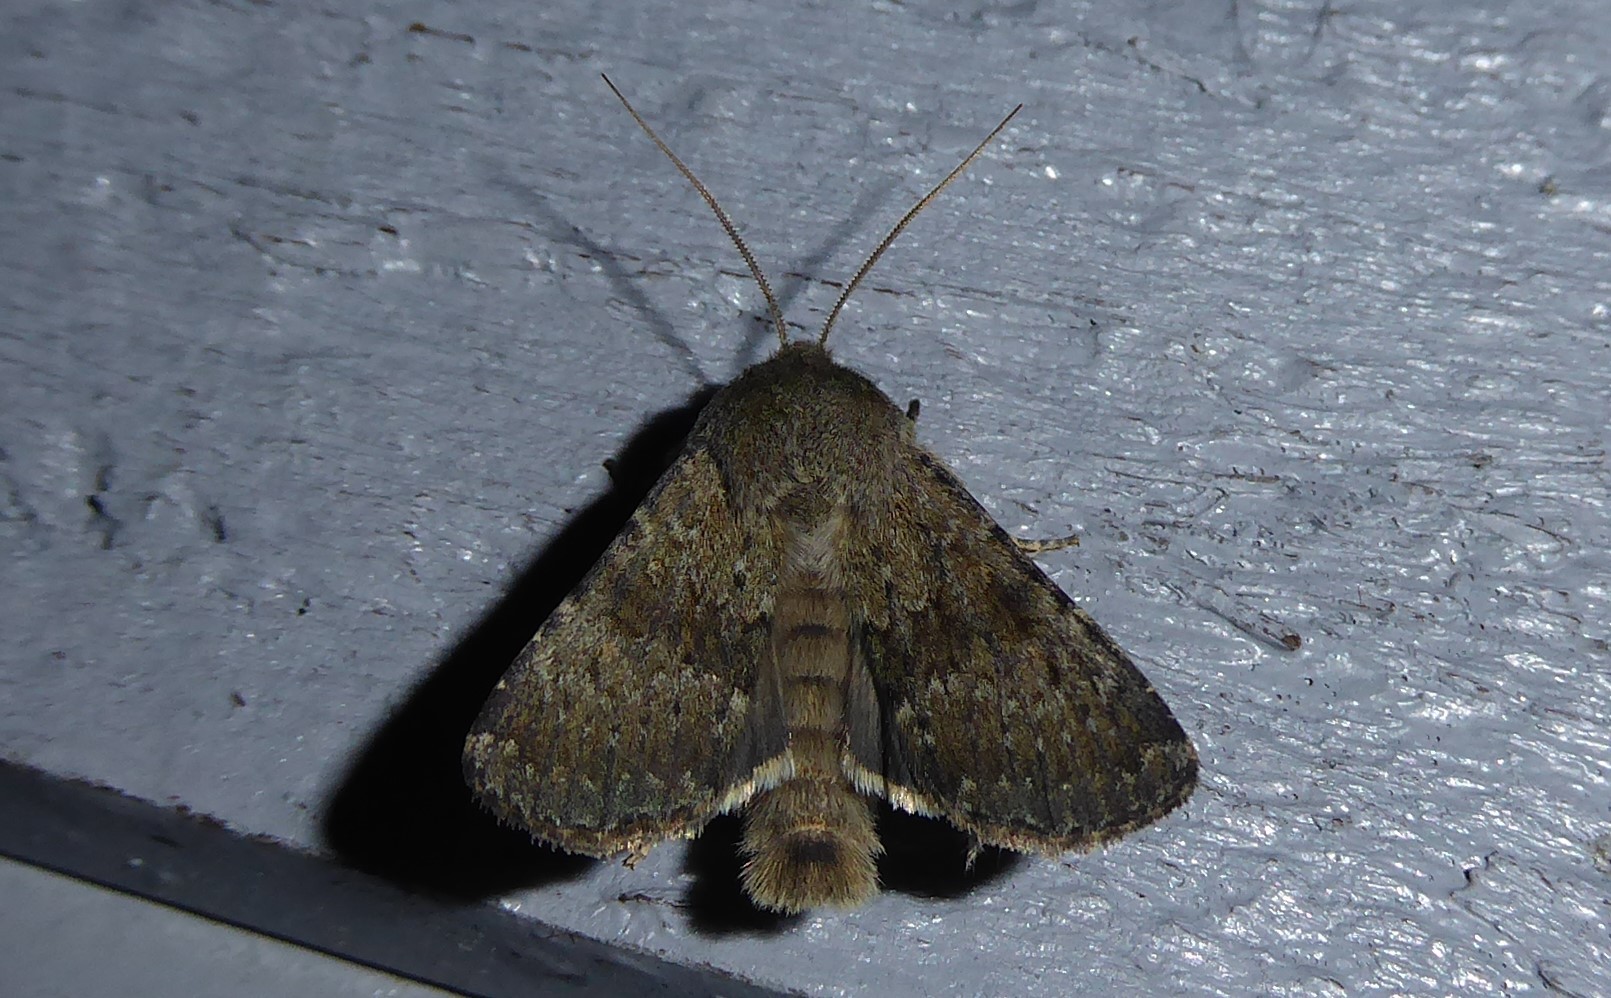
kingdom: Animalia
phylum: Arthropoda
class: Insecta
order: Lepidoptera
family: Noctuidae
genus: Ichneutica
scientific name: Ichneutica moderata
